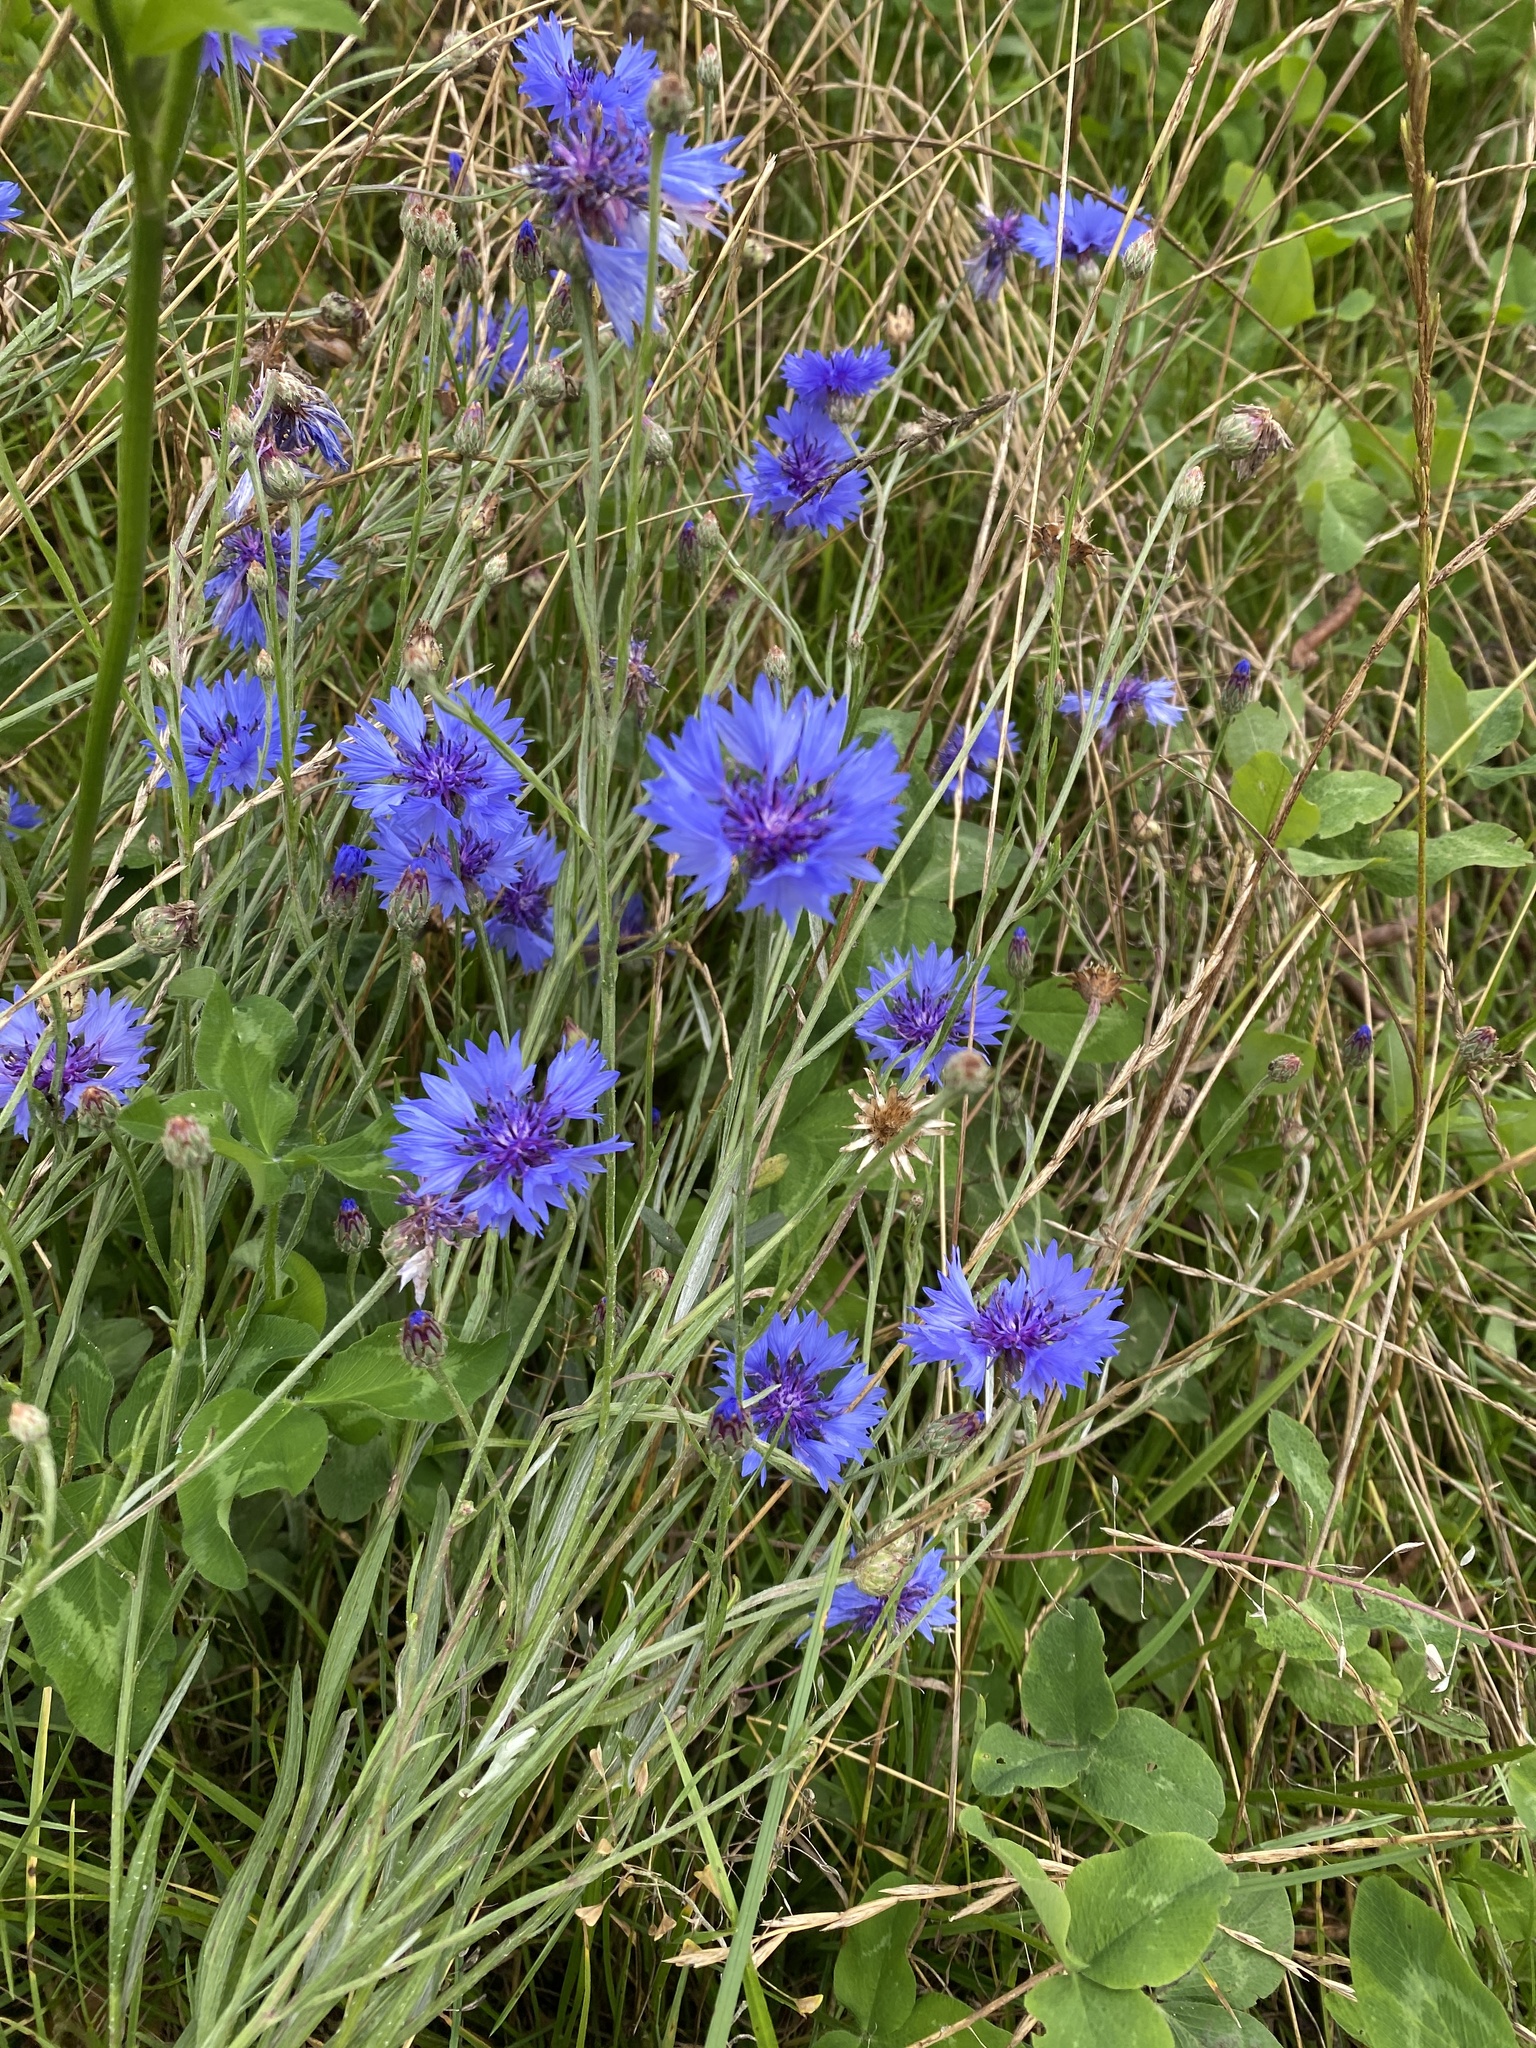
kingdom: Plantae
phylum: Tracheophyta
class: Magnoliopsida
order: Asterales
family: Asteraceae
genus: Centaurea
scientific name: Centaurea cyanus
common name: Cornflower
